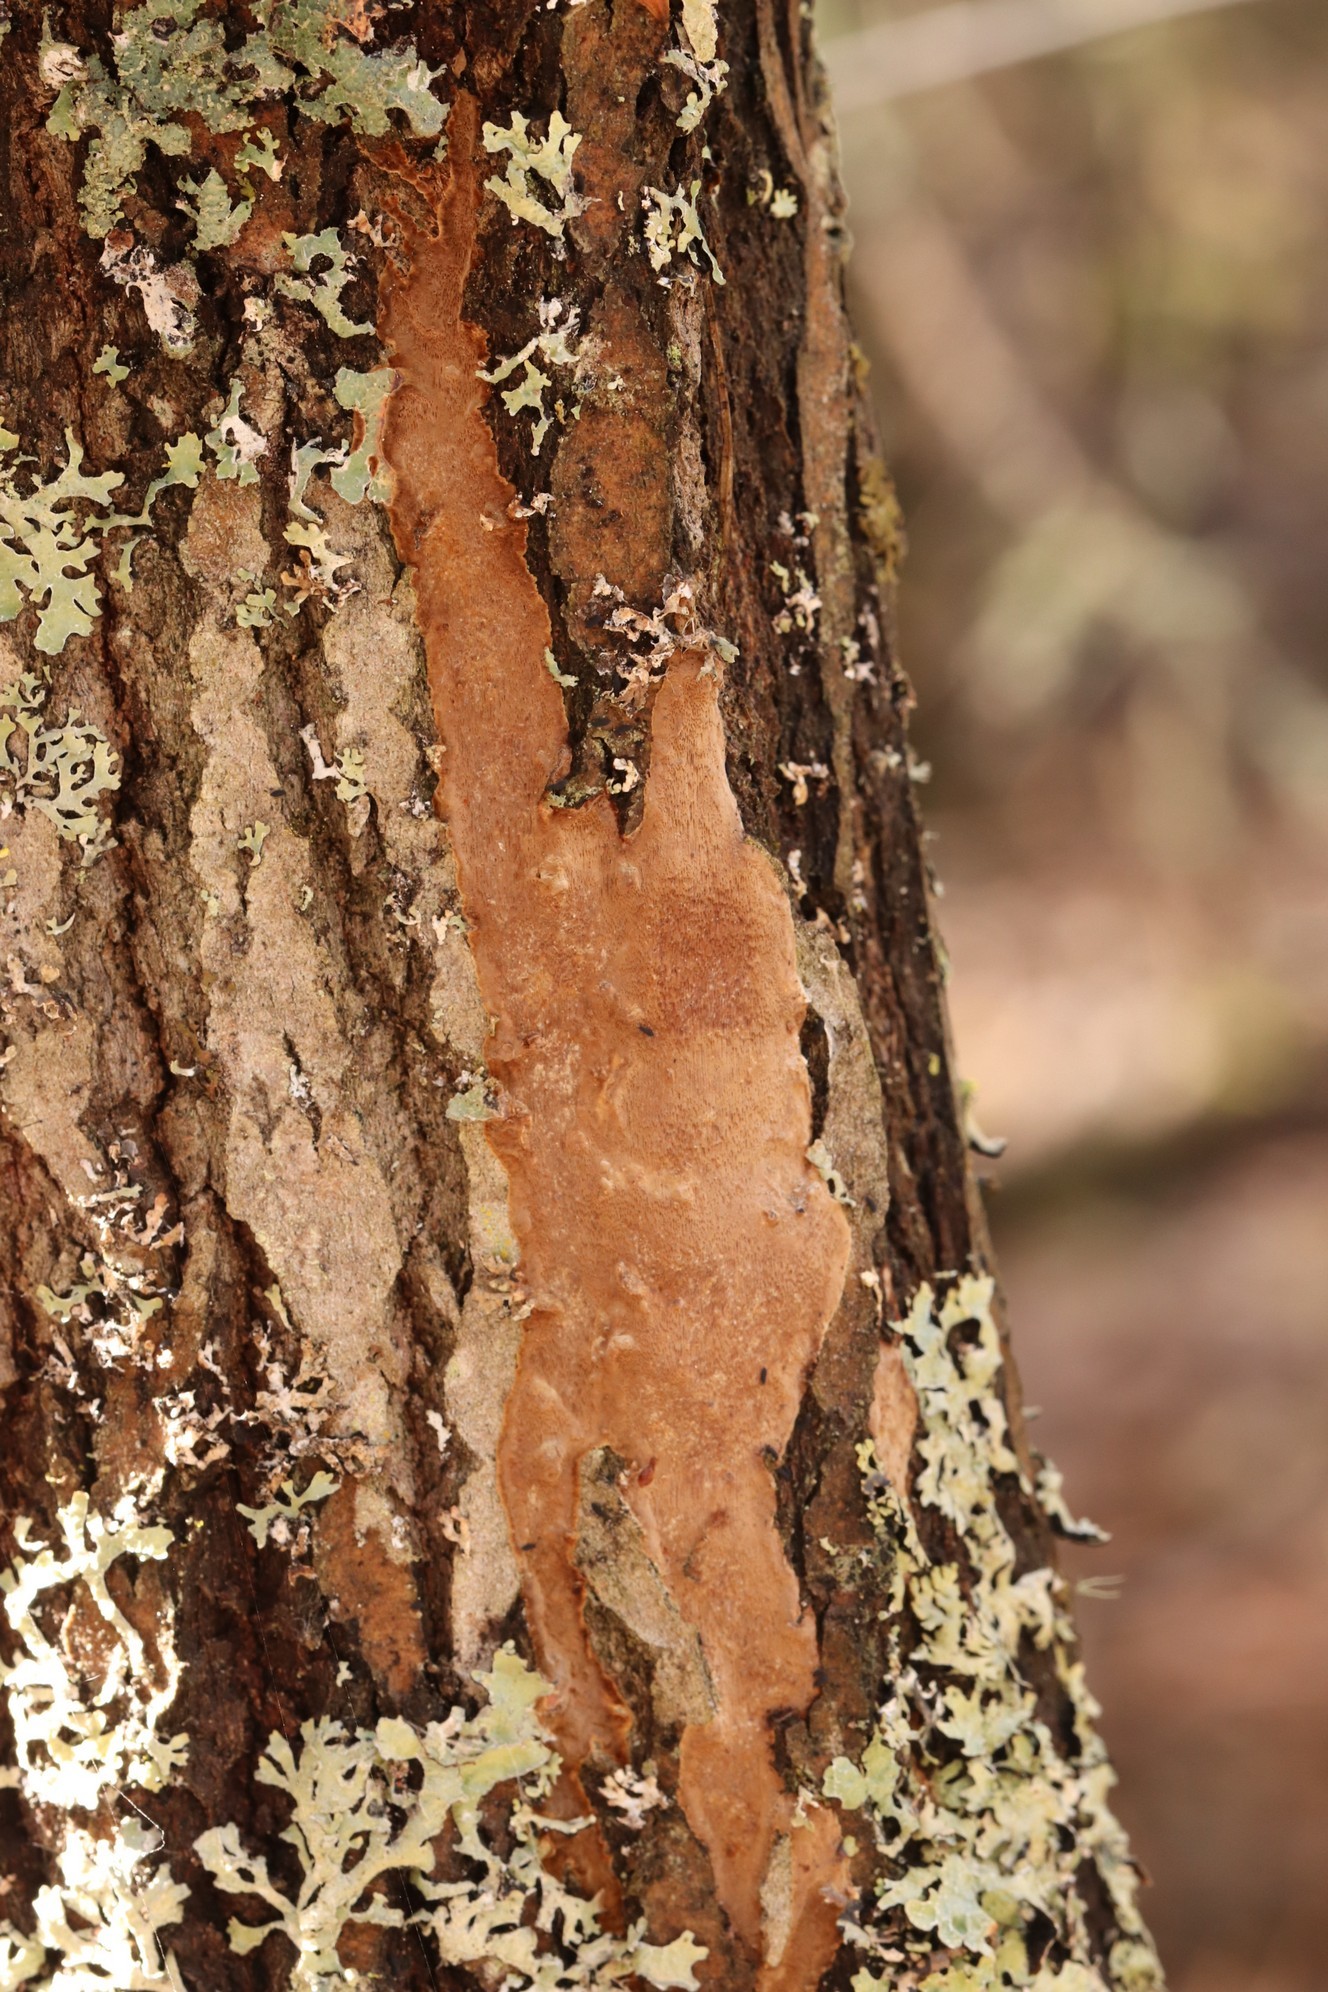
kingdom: Fungi
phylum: Basidiomycota
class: Agaricomycetes
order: Hymenochaetales
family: Hymenochaetaceae
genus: Fomitiporia
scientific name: Fomitiporia punctata
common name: Elbowpatch crust
